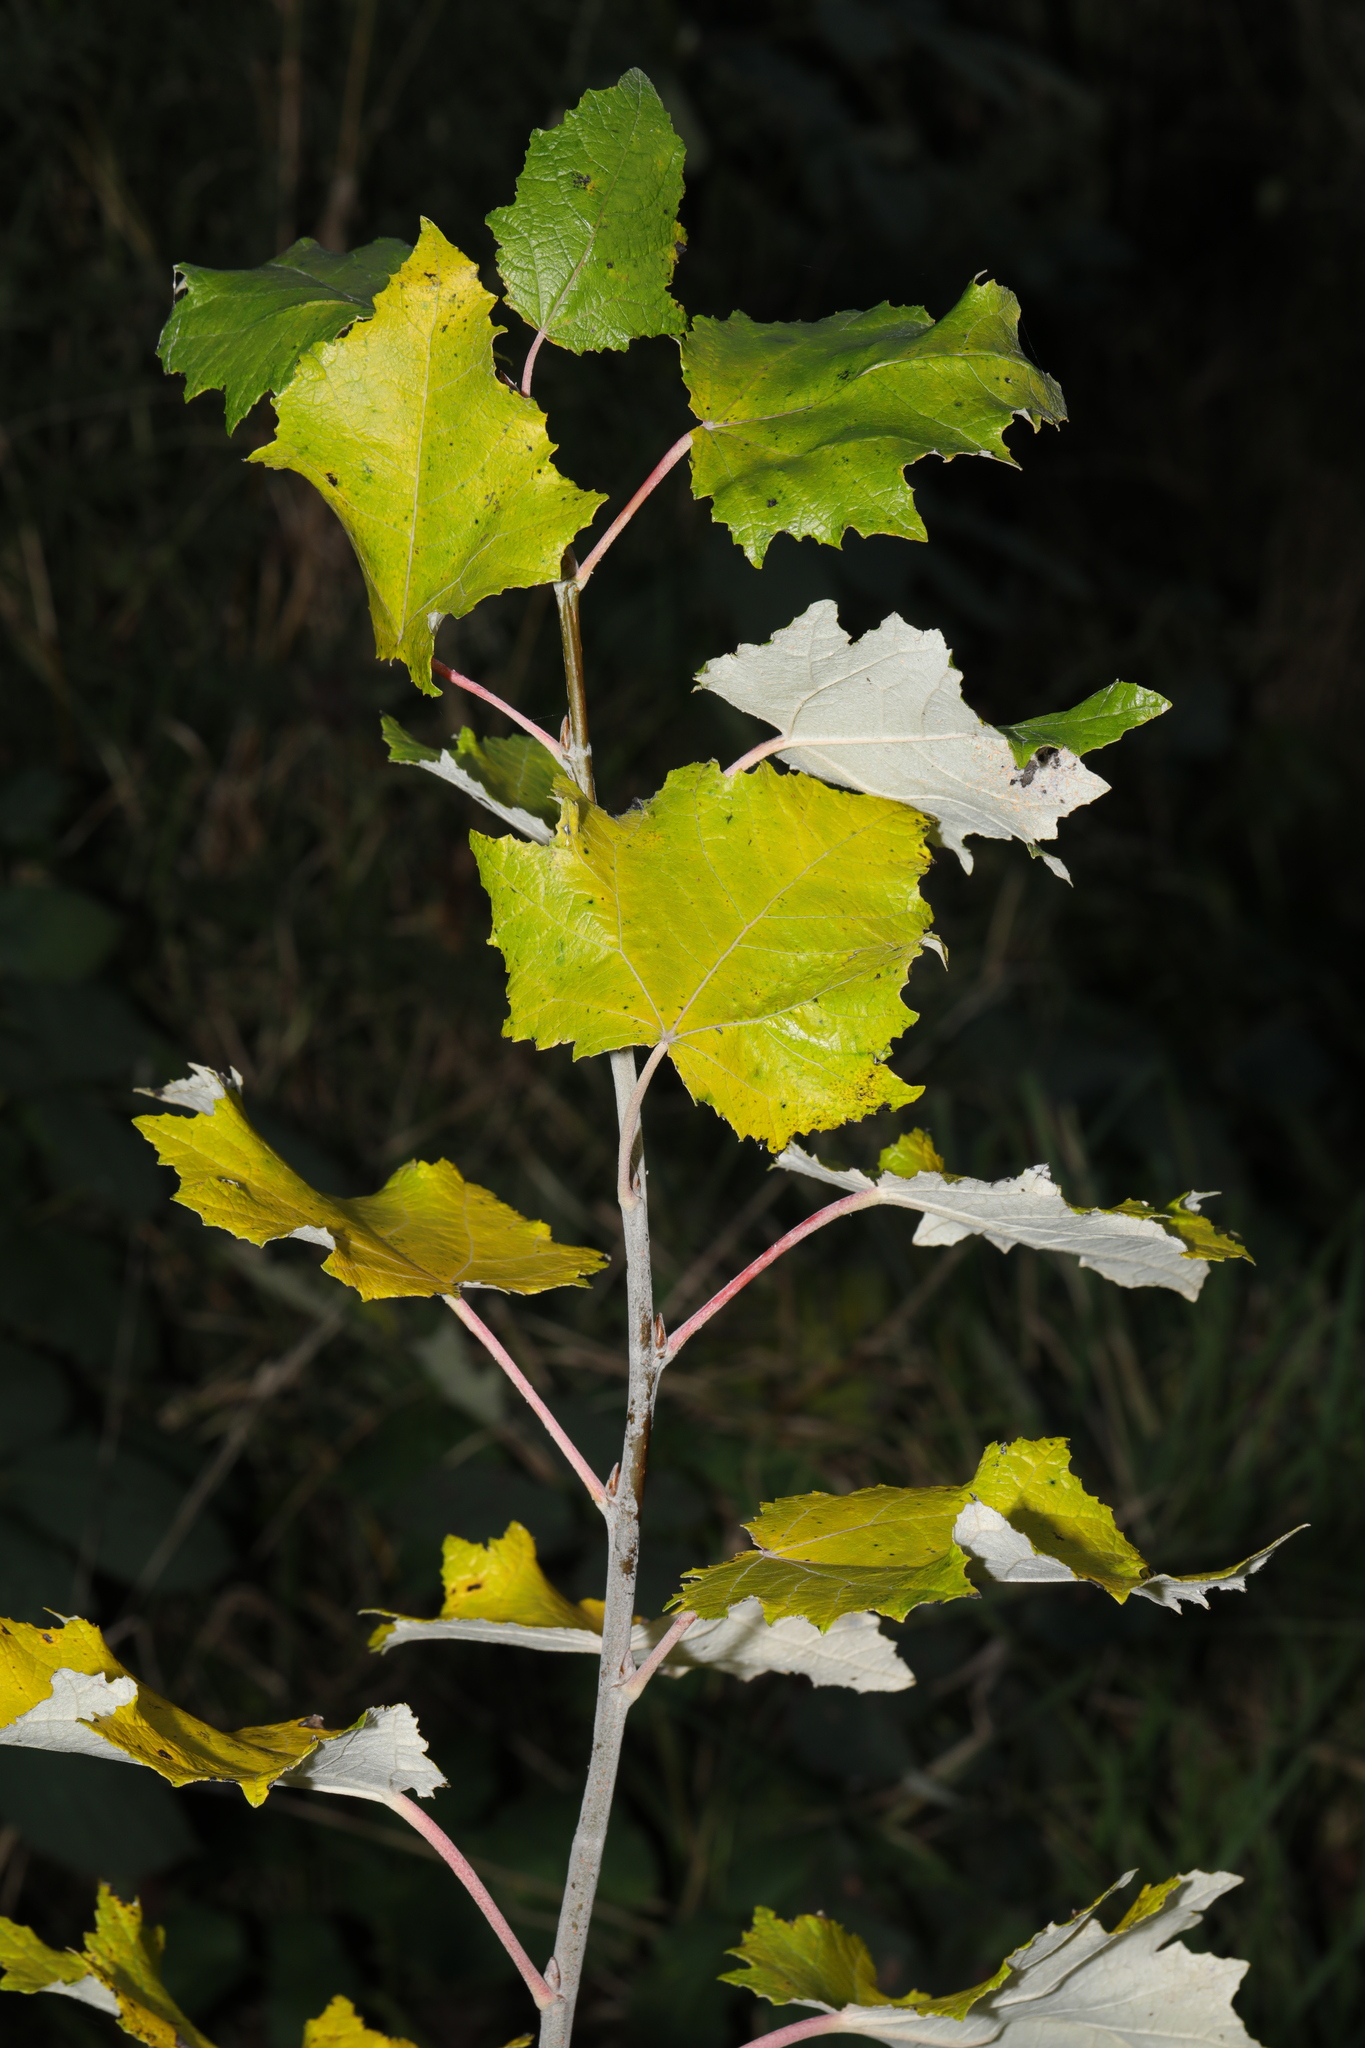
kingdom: Plantae
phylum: Tracheophyta
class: Magnoliopsida
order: Malpighiales
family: Salicaceae
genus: Populus
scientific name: Populus alba
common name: White poplar
